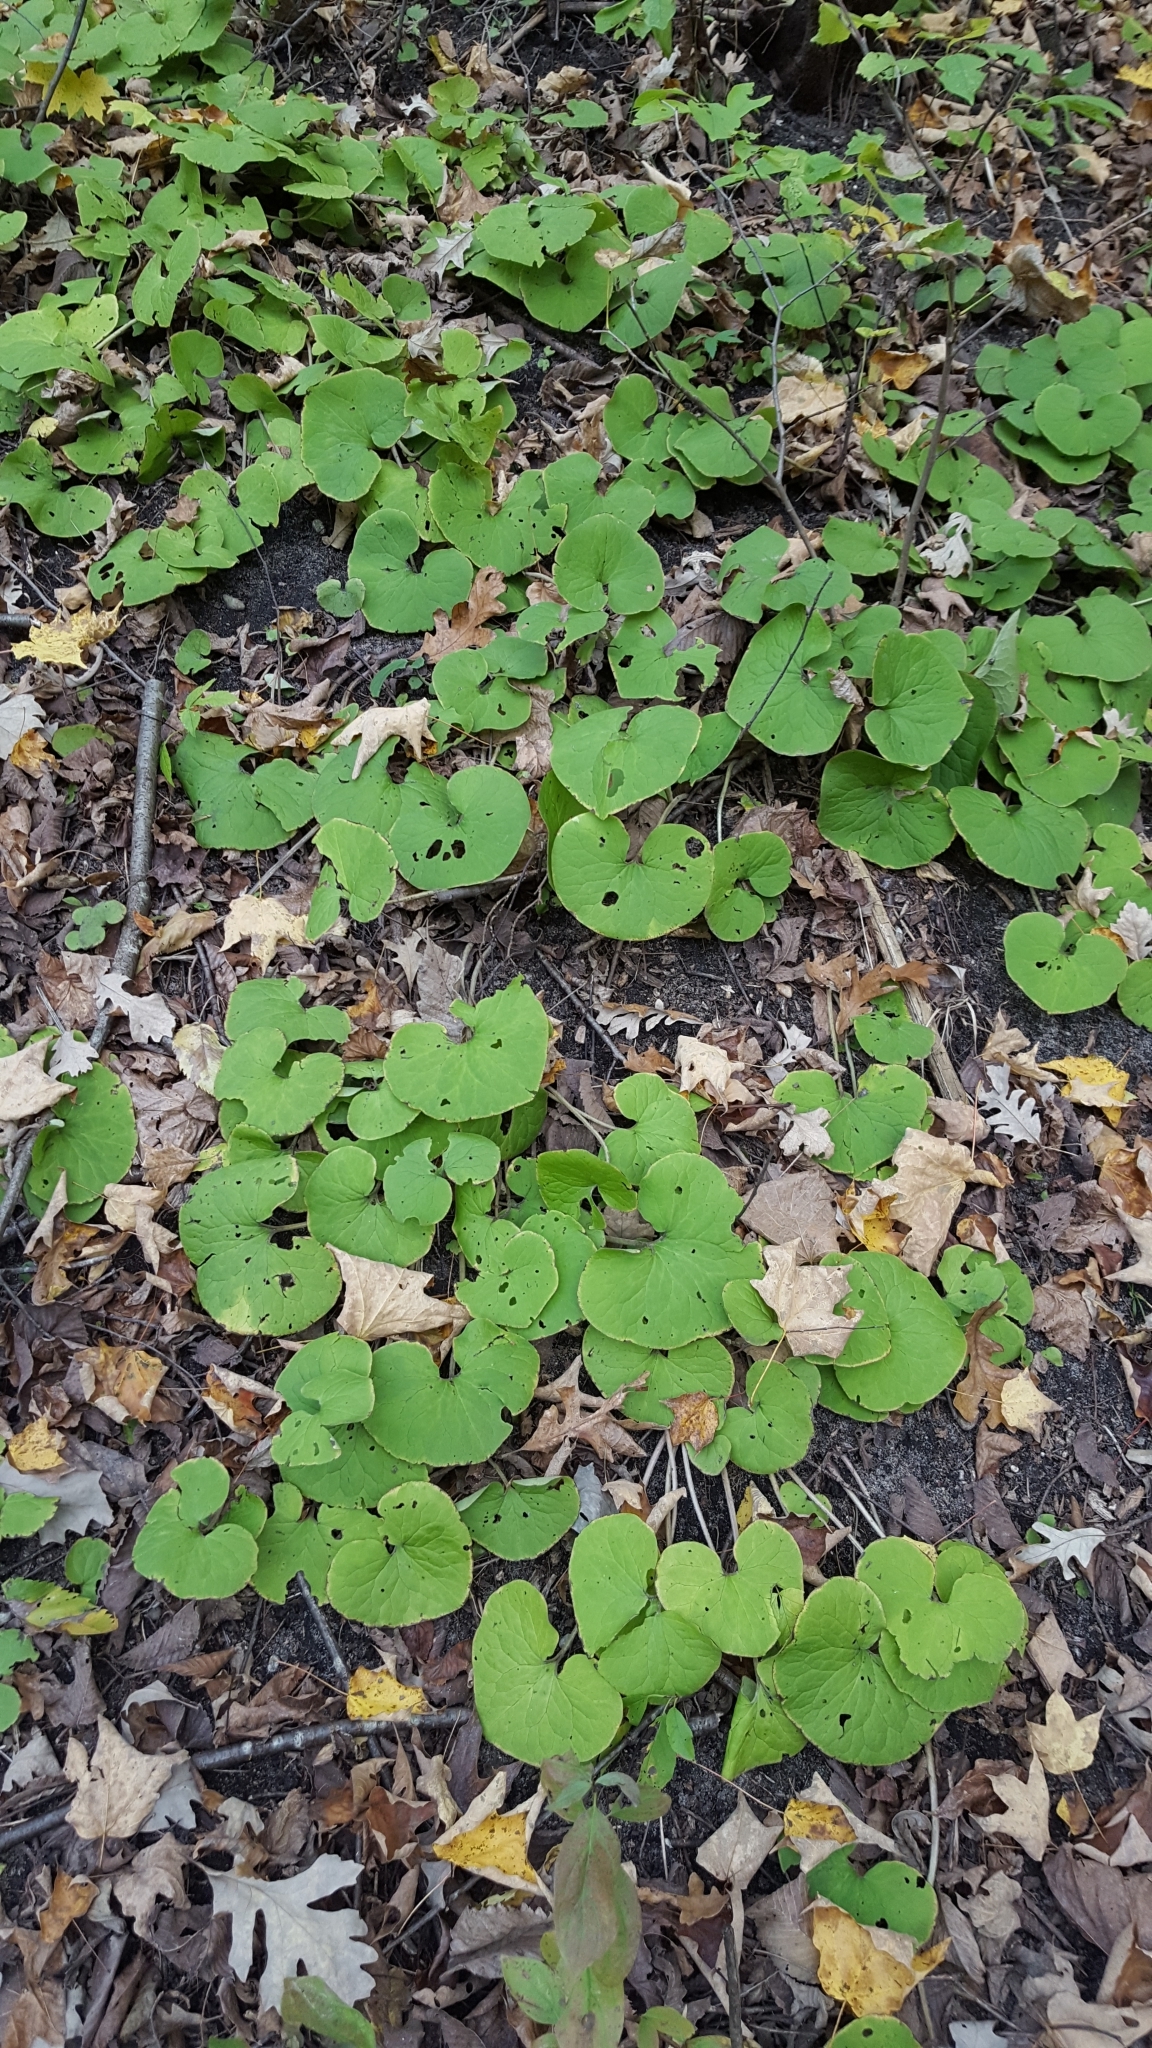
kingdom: Plantae
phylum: Tracheophyta
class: Magnoliopsida
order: Piperales
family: Aristolochiaceae
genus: Asarum
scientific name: Asarum canadense
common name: Wild ginger
